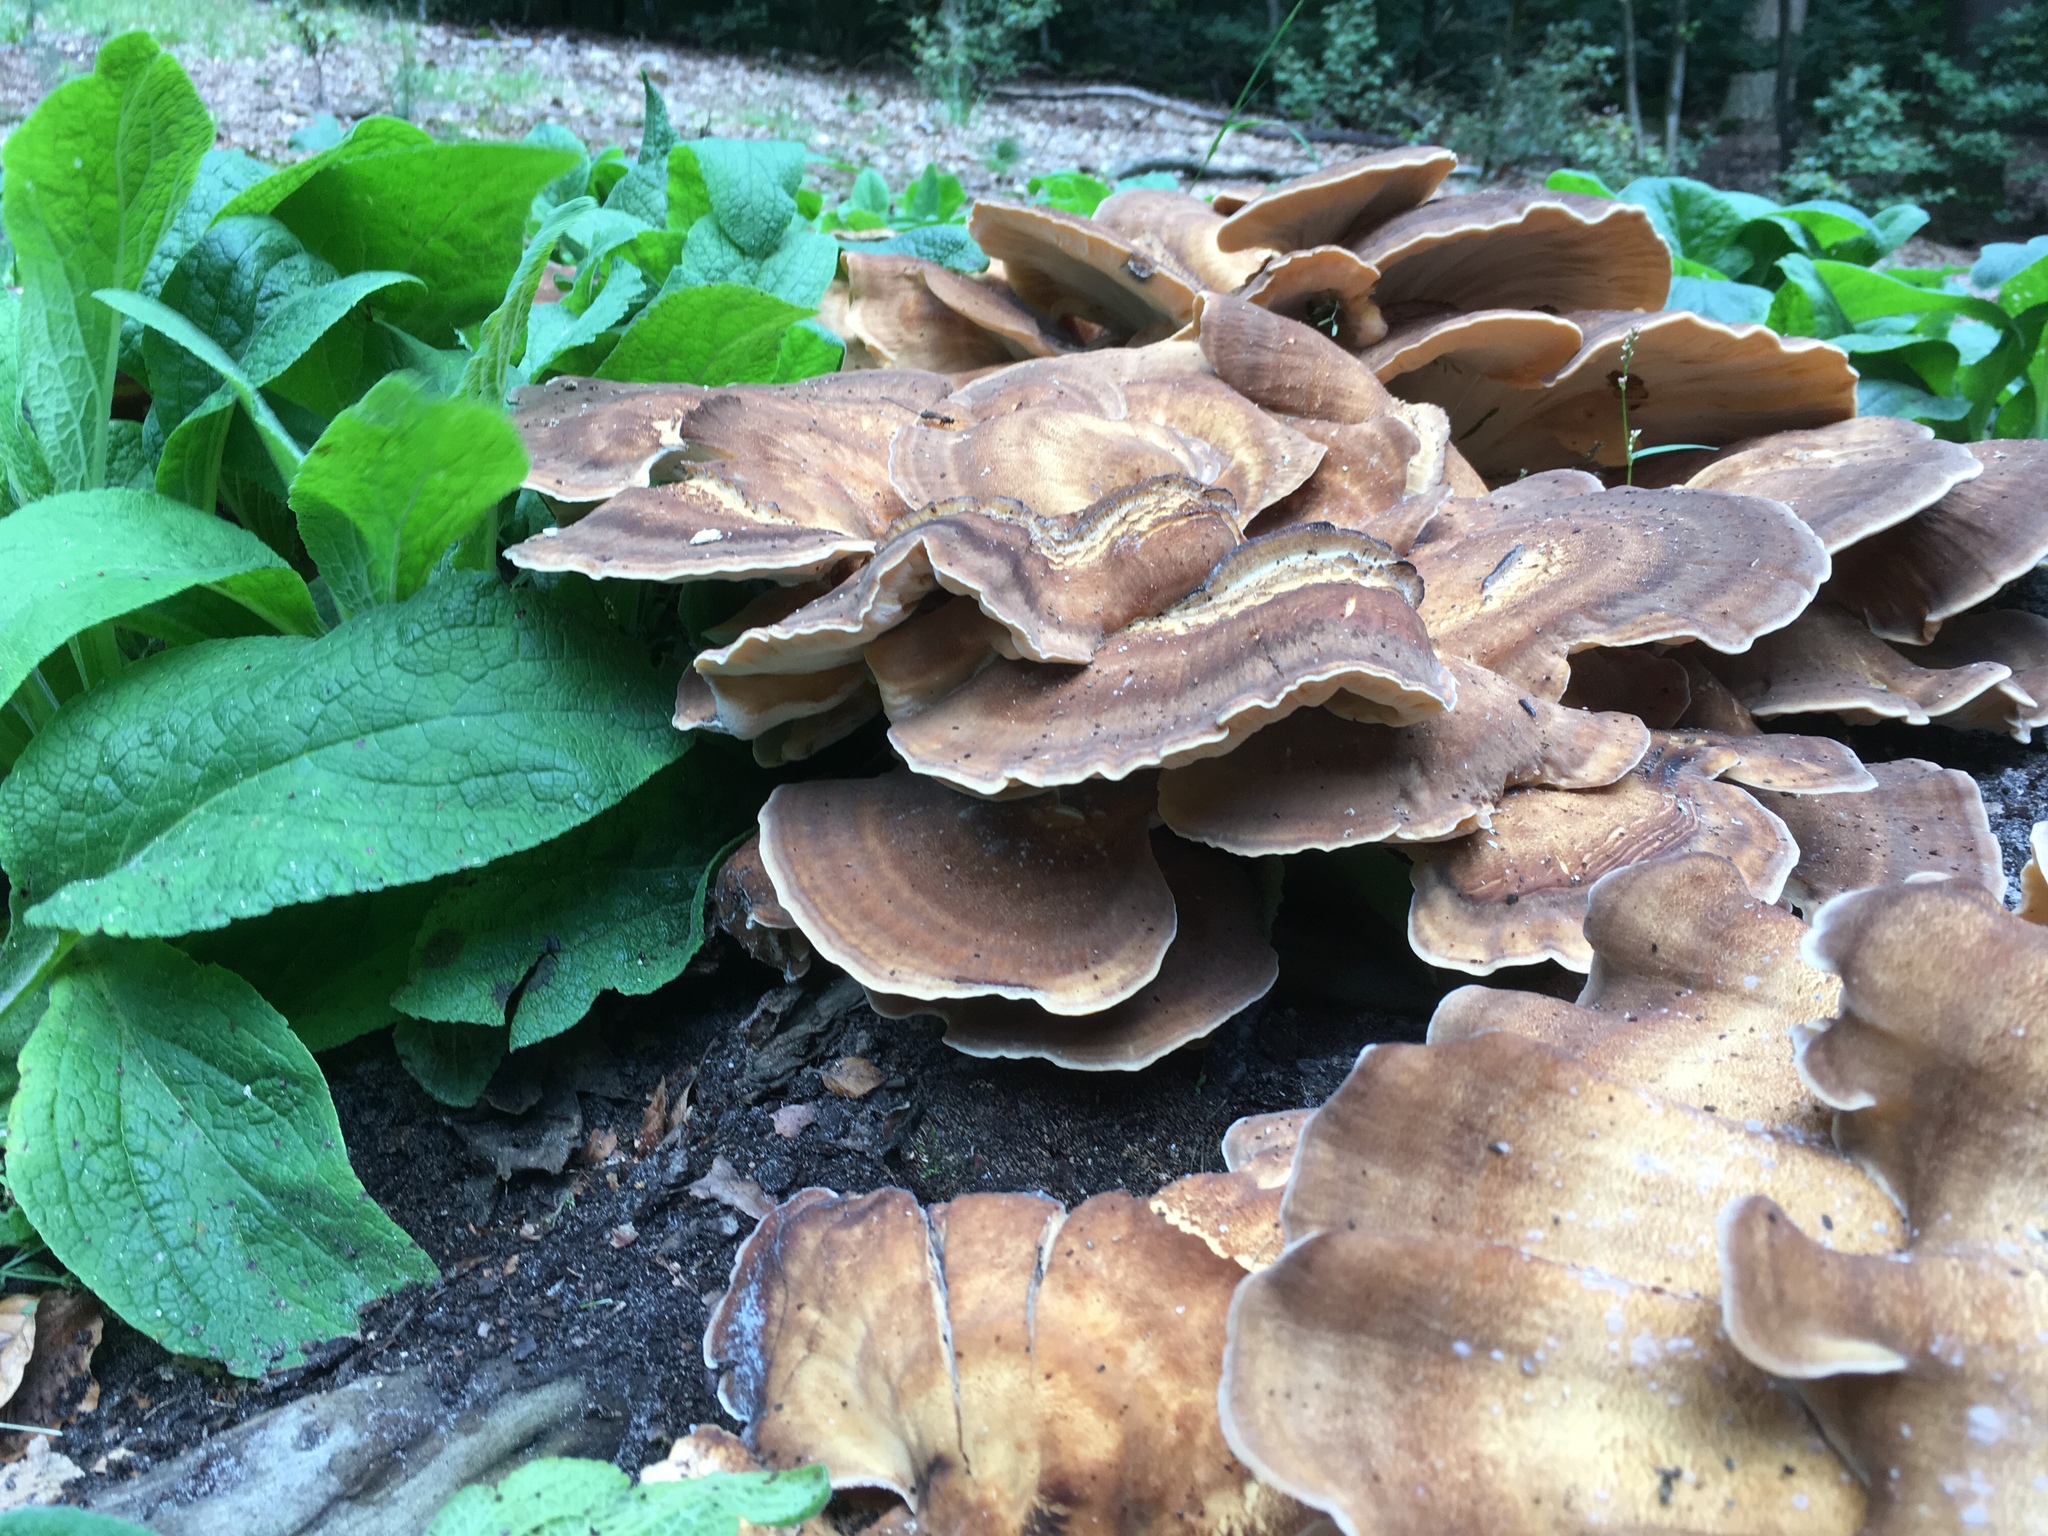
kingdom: Fungi
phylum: Basidiomycota
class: Agaricomycetes
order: Polyporales
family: Meripilaceae
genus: Meripilus
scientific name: Meripilus giganteus
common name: Giant polypore
